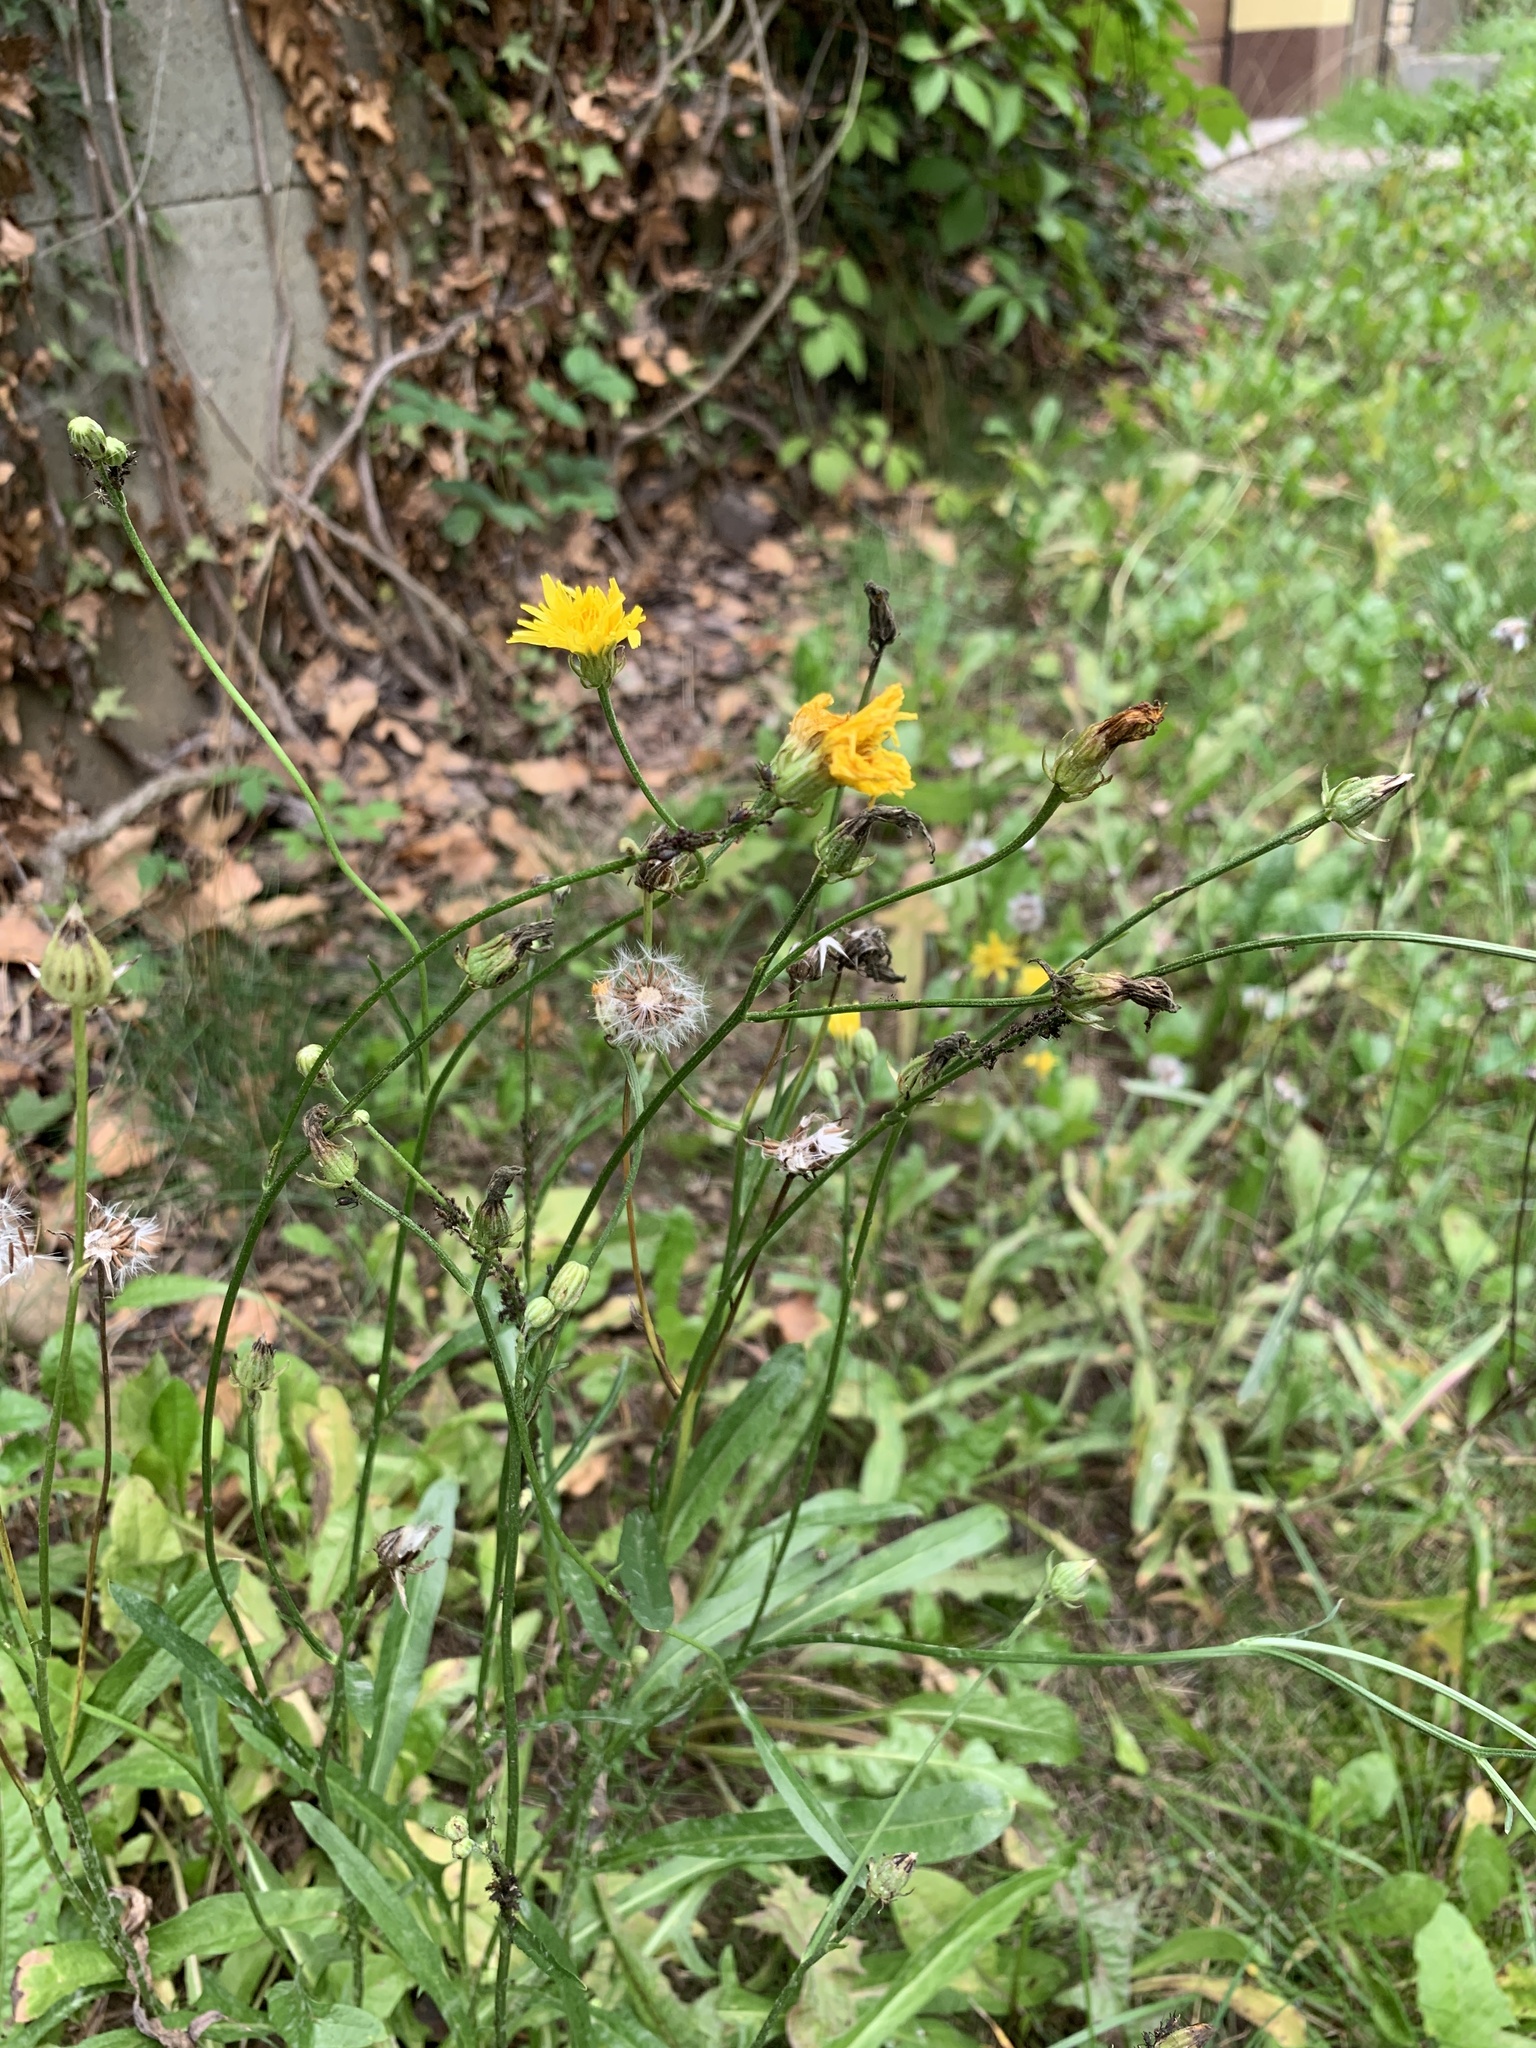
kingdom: Plantae
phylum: Tracheophyta
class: Magnoliopsida
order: Asterales
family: Asteraceae
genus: Crepis
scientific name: Crepis biennis
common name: Rough hawk's-beard
